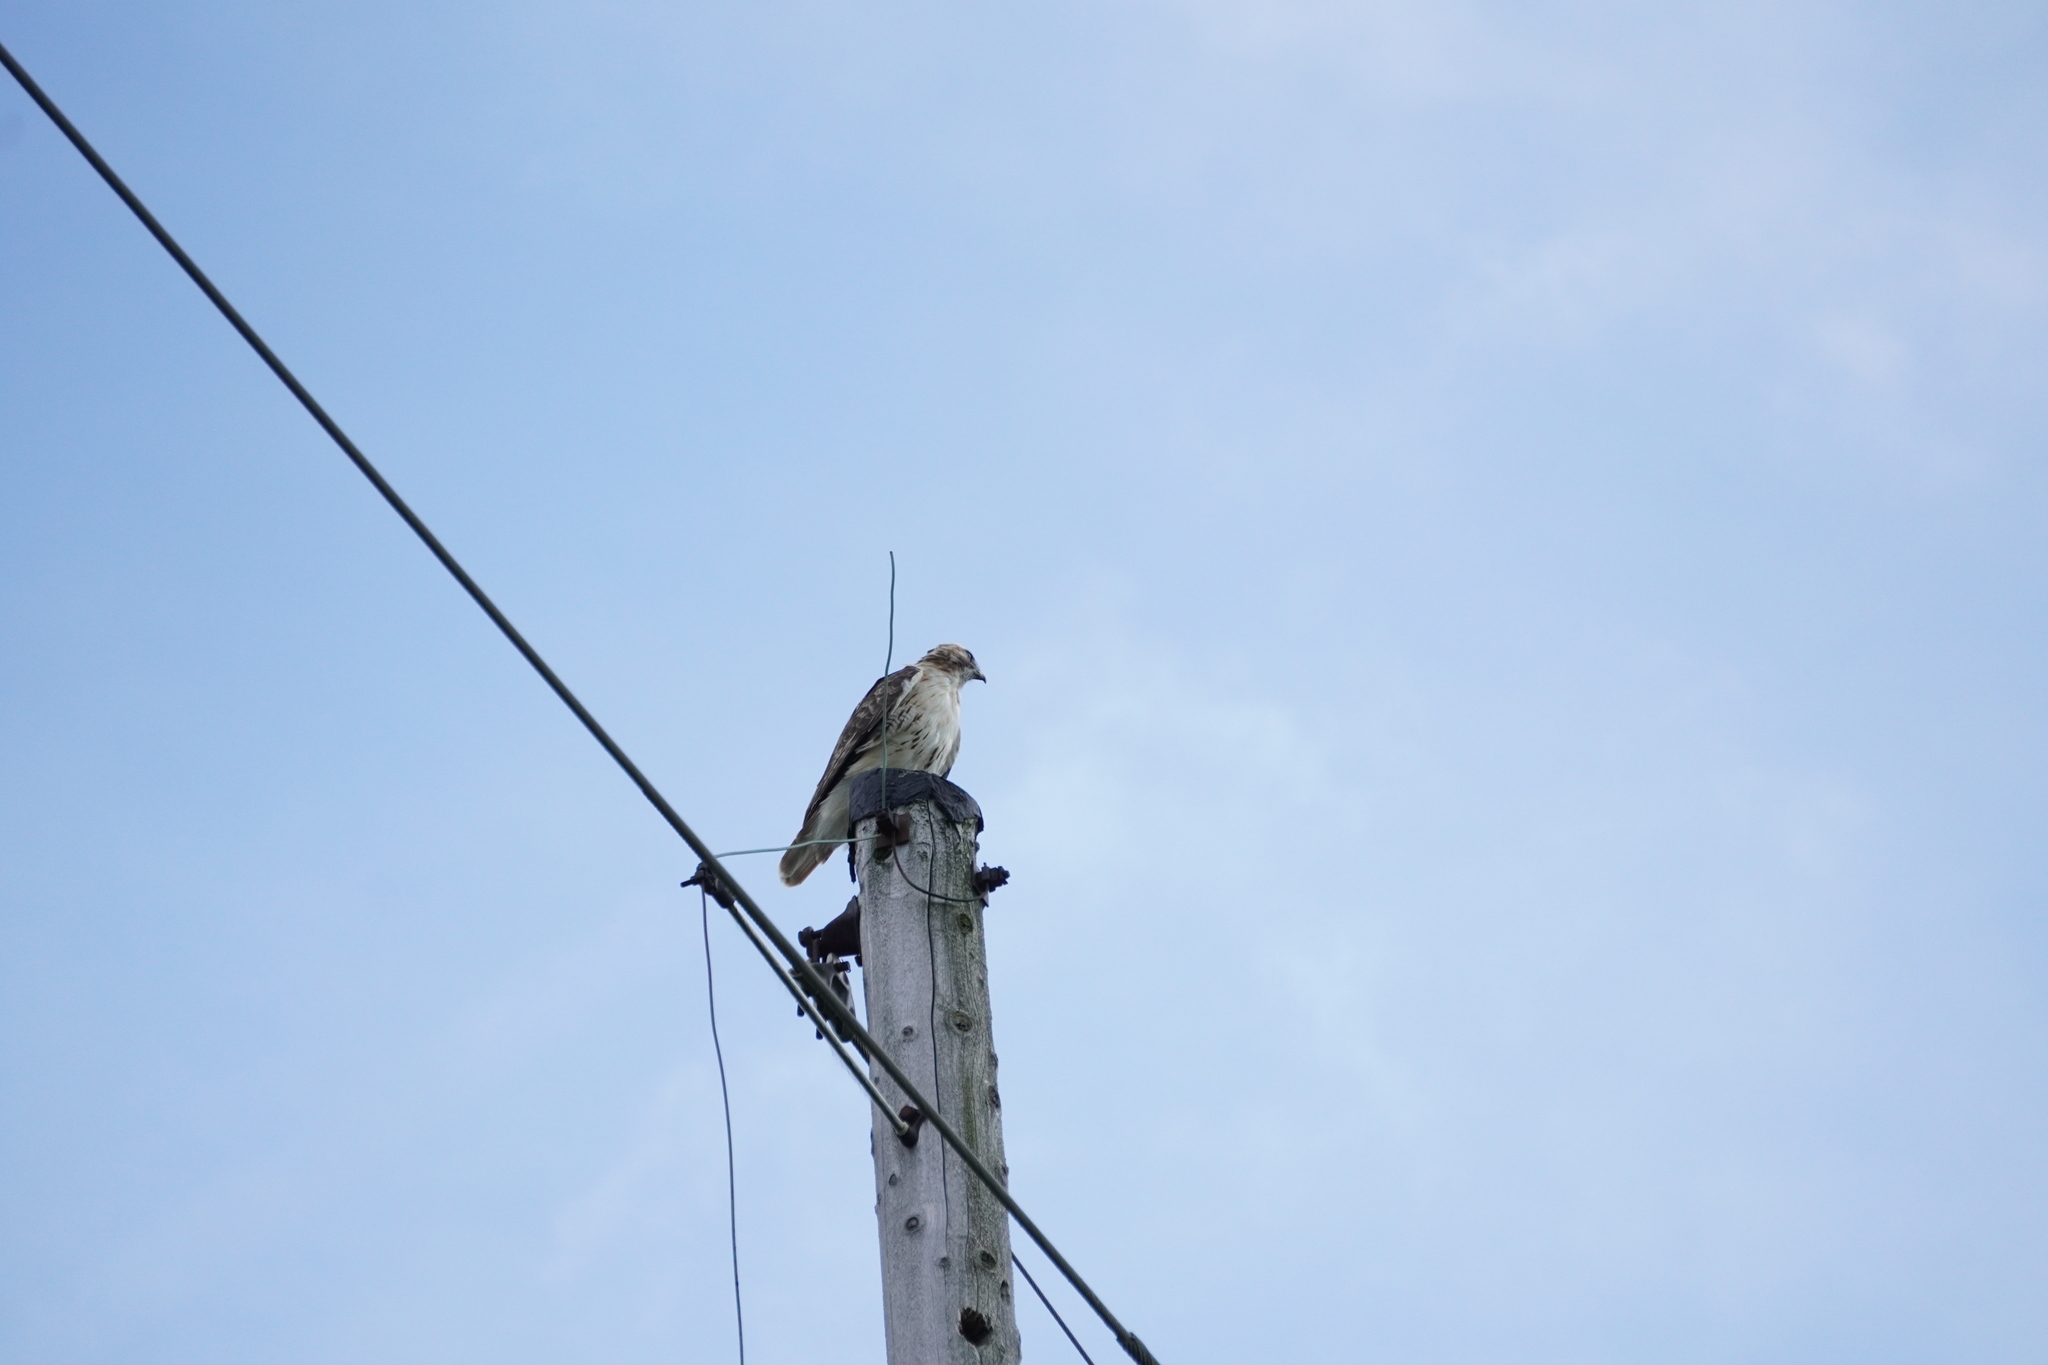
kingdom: Animalia
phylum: Chordata
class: Aves
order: Accipitriformes
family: Accipitridae
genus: Buteo
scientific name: Buteo jamaicensis
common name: Red-tailed hawk
